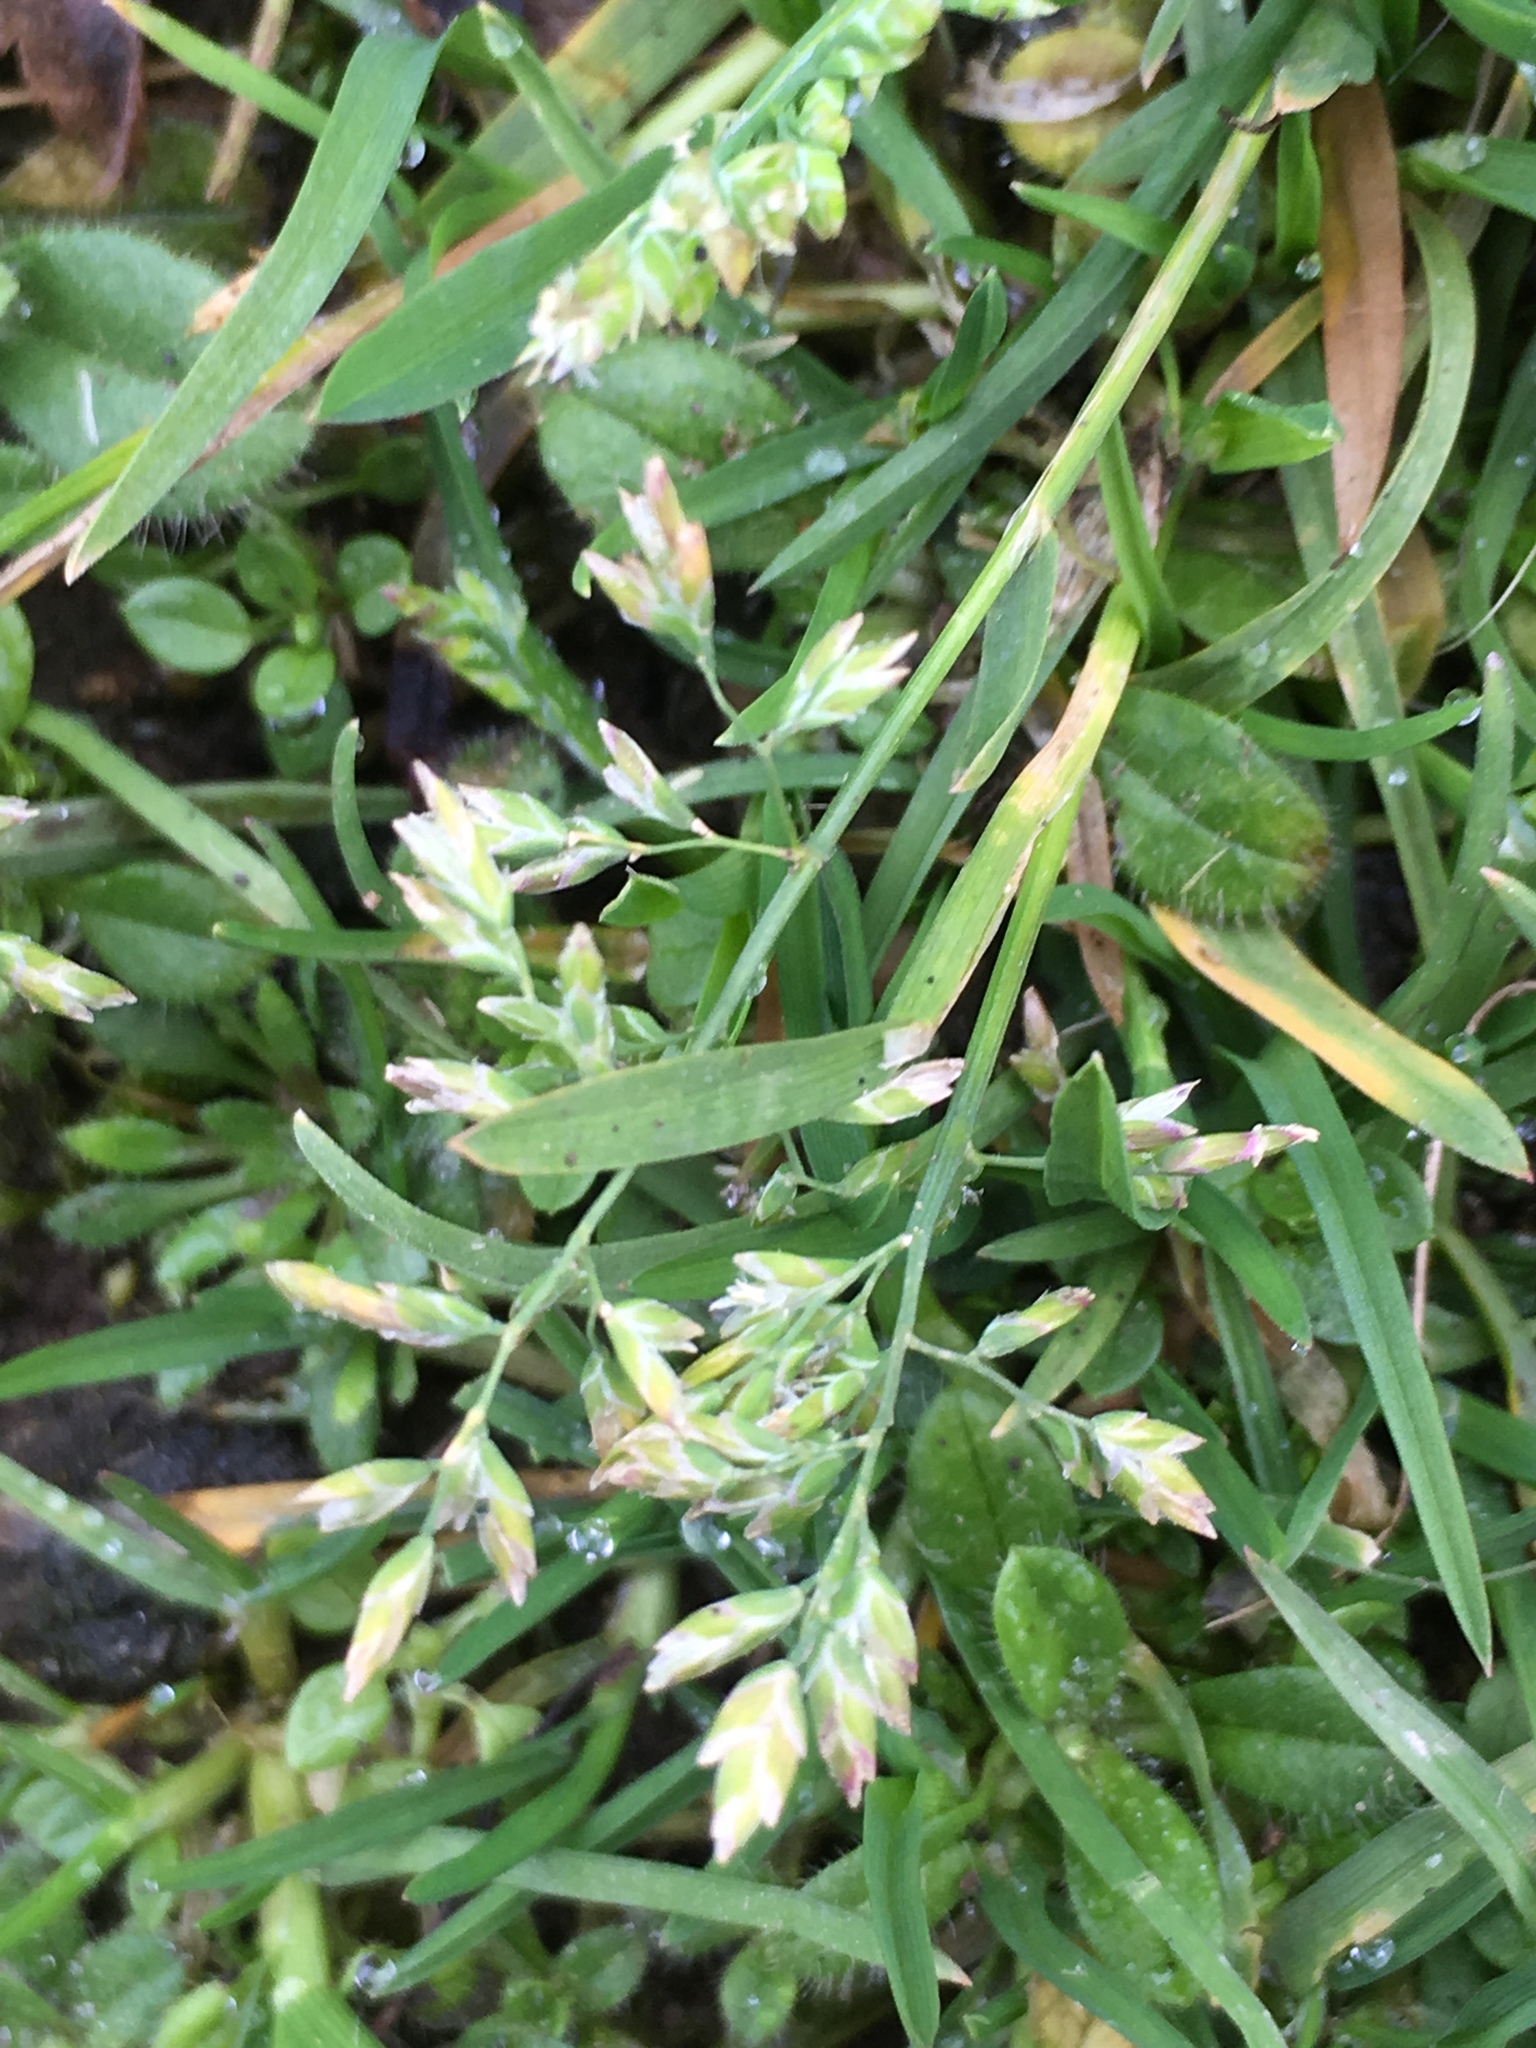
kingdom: Plantae
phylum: Tracheophyta
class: Liliopsida
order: Poales
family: Poaceae
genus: Poa
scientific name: Poa annua
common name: Annual bluegrass
